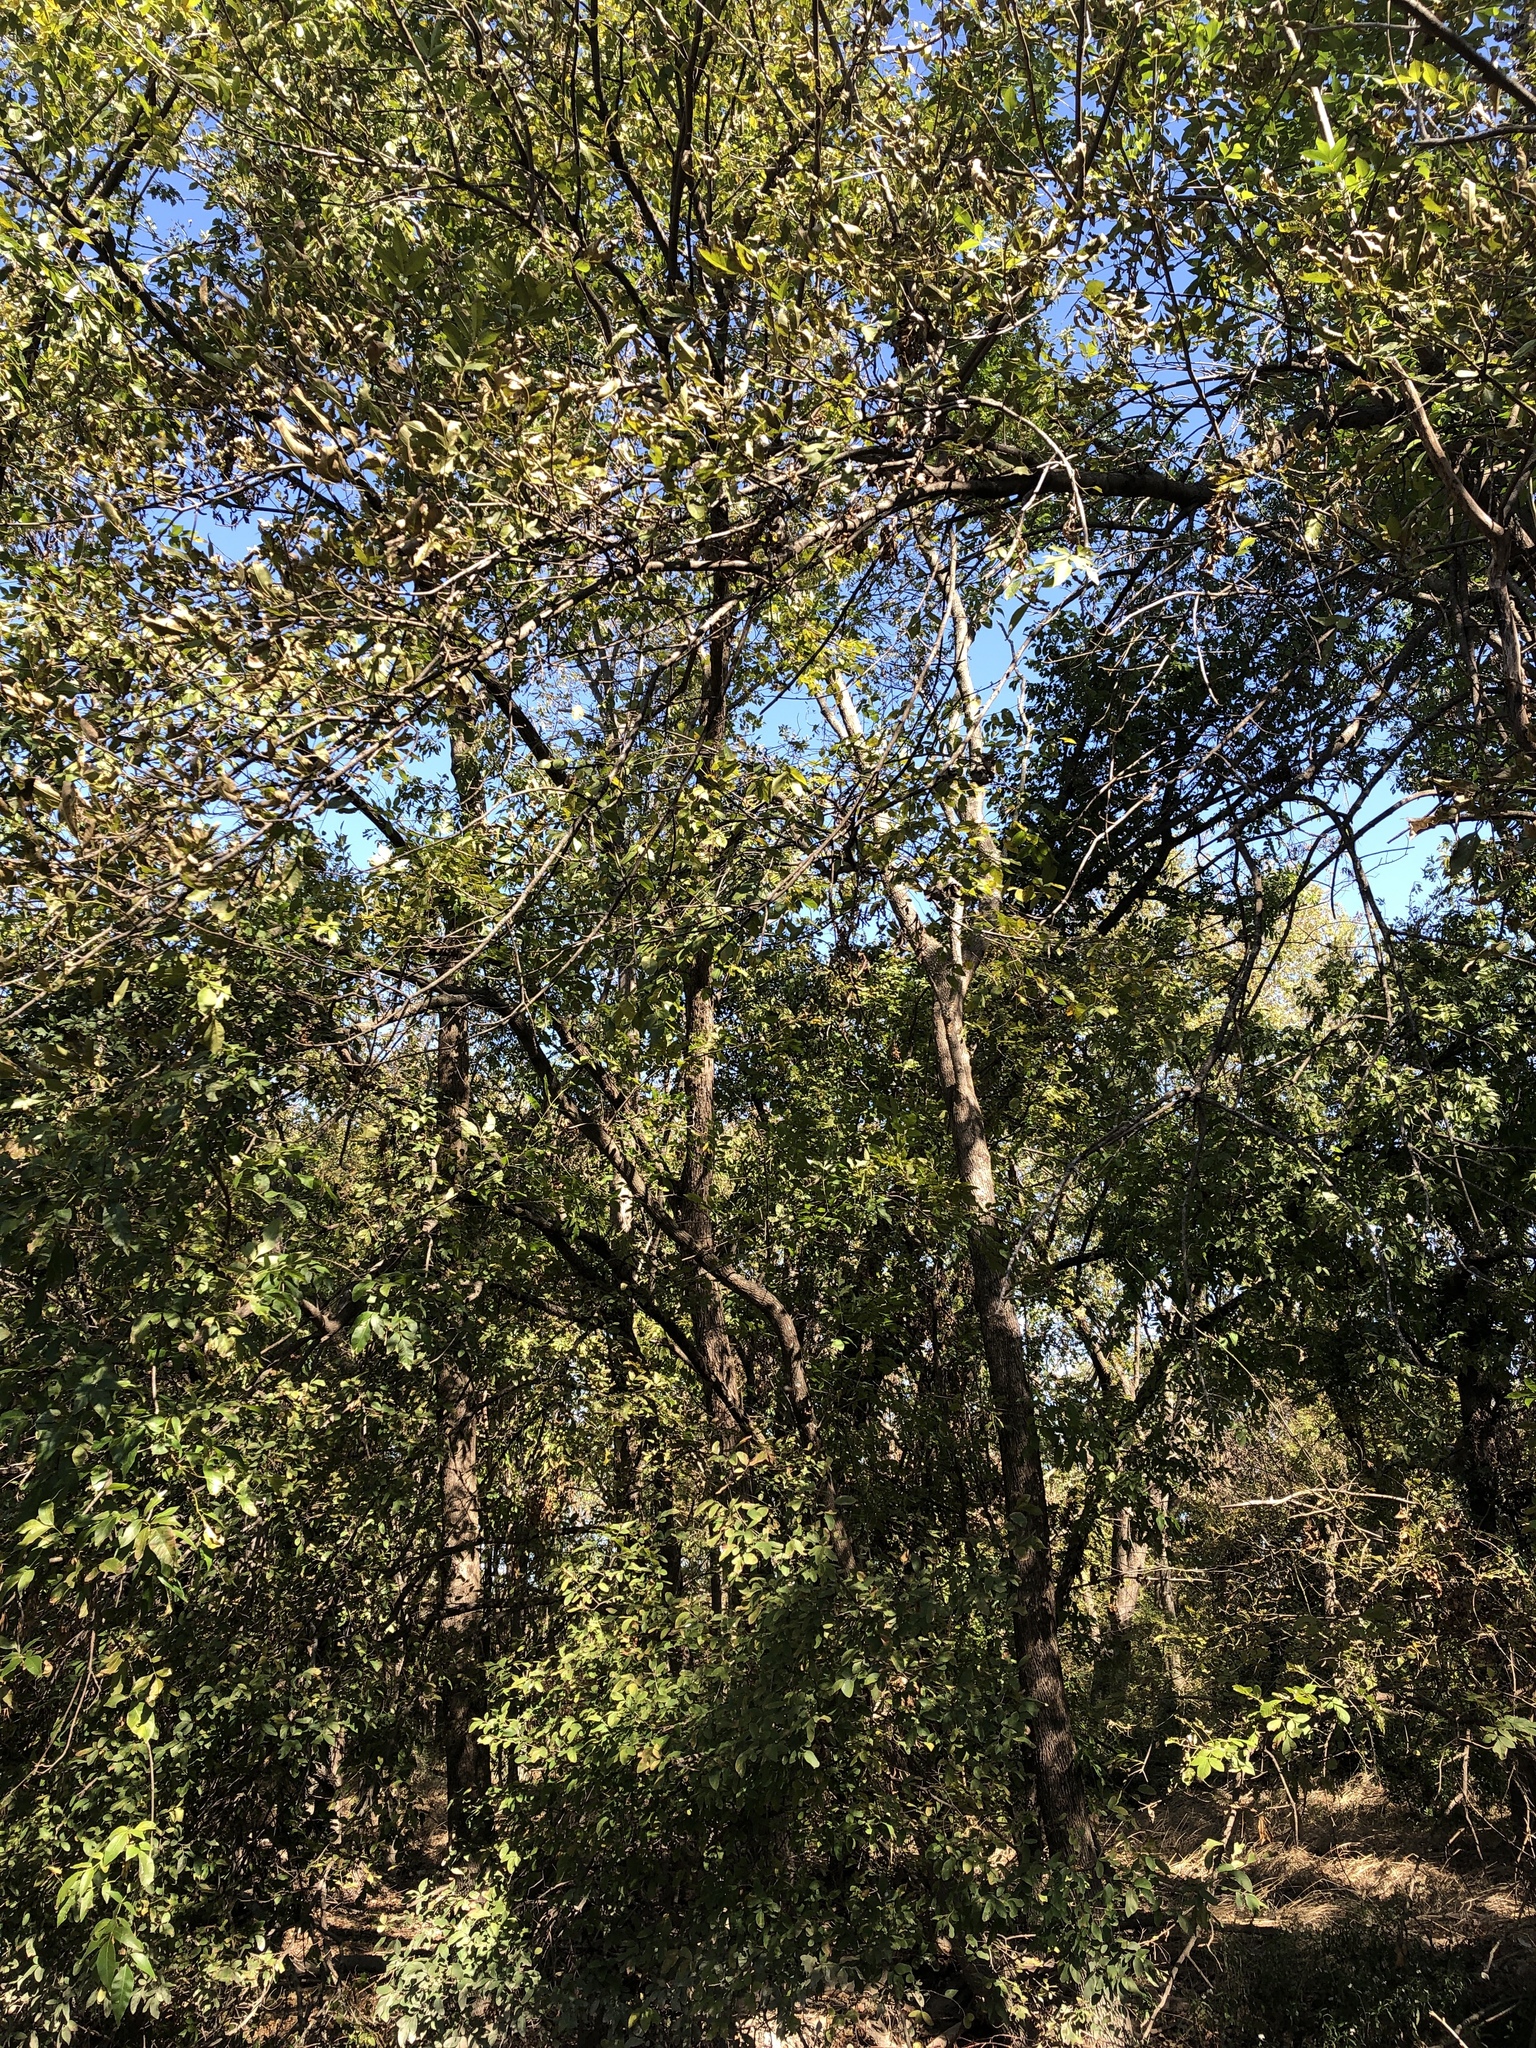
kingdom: Plantae
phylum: Tracheophyta
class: Magnoliopsida
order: Lamiales
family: Oleaceae
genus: Fraxinus
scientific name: Fraxinus pennsylvanica
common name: Green ash
